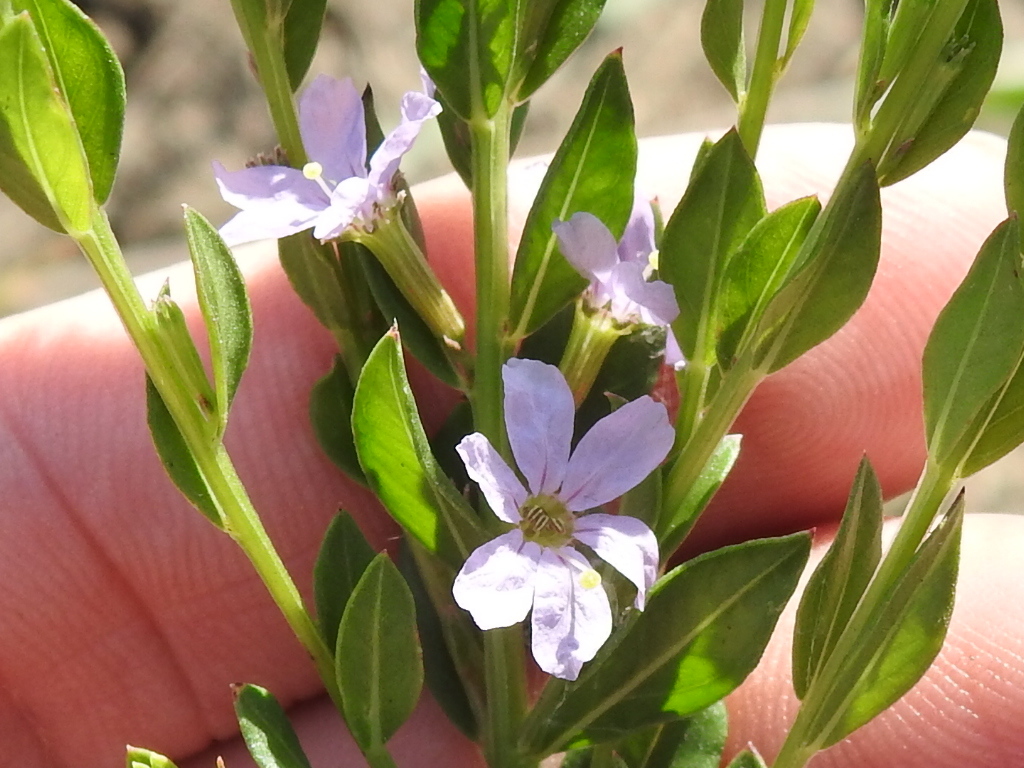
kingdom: Plantae
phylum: Tracheophyta
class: Magnoliopsida
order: Myrtales
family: Lythraceae
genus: Lythrum
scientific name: Lythrum alatum
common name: Winged loosestrife
